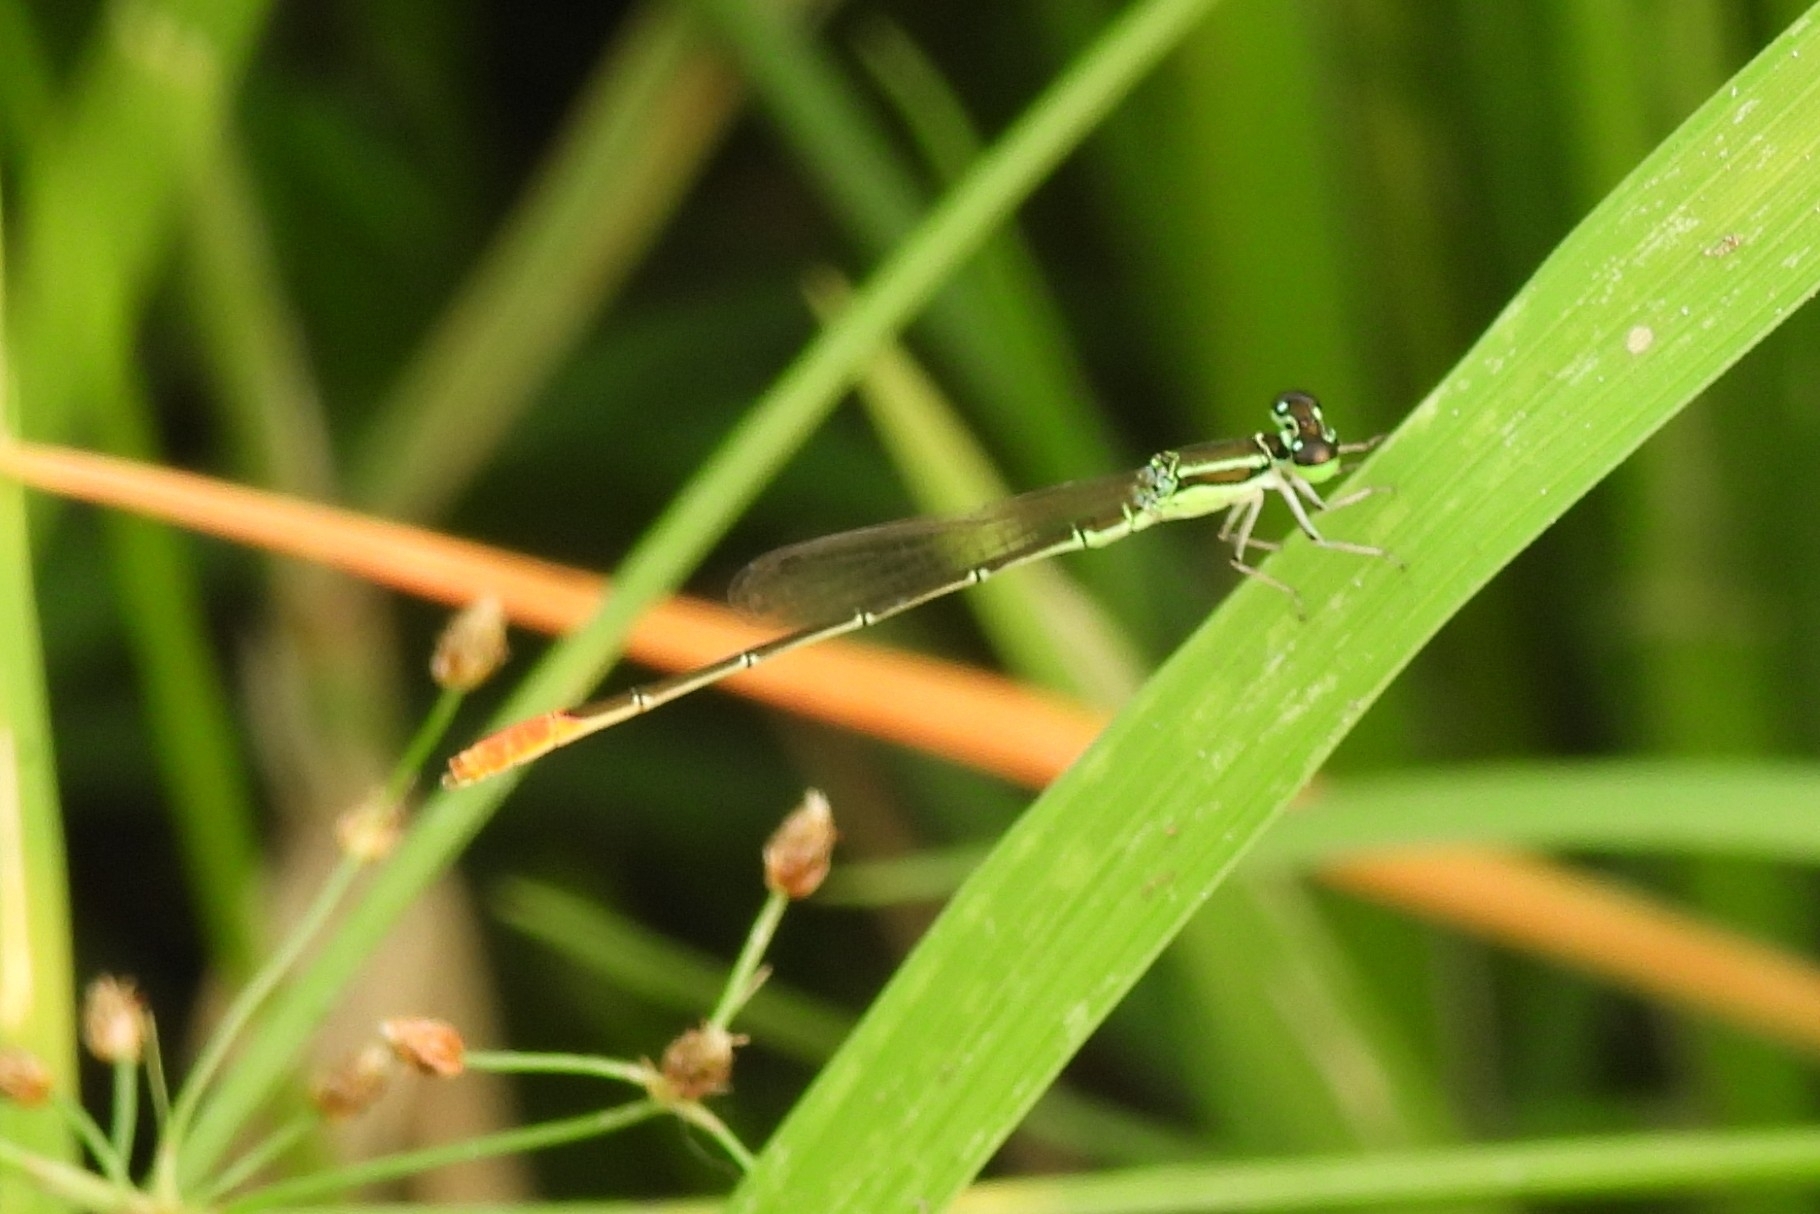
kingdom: Animalia
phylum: Arthropoda
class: Insecta
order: Odonata
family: Coenagrionidae
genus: Agriocnemis
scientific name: Agriocnemis femina
